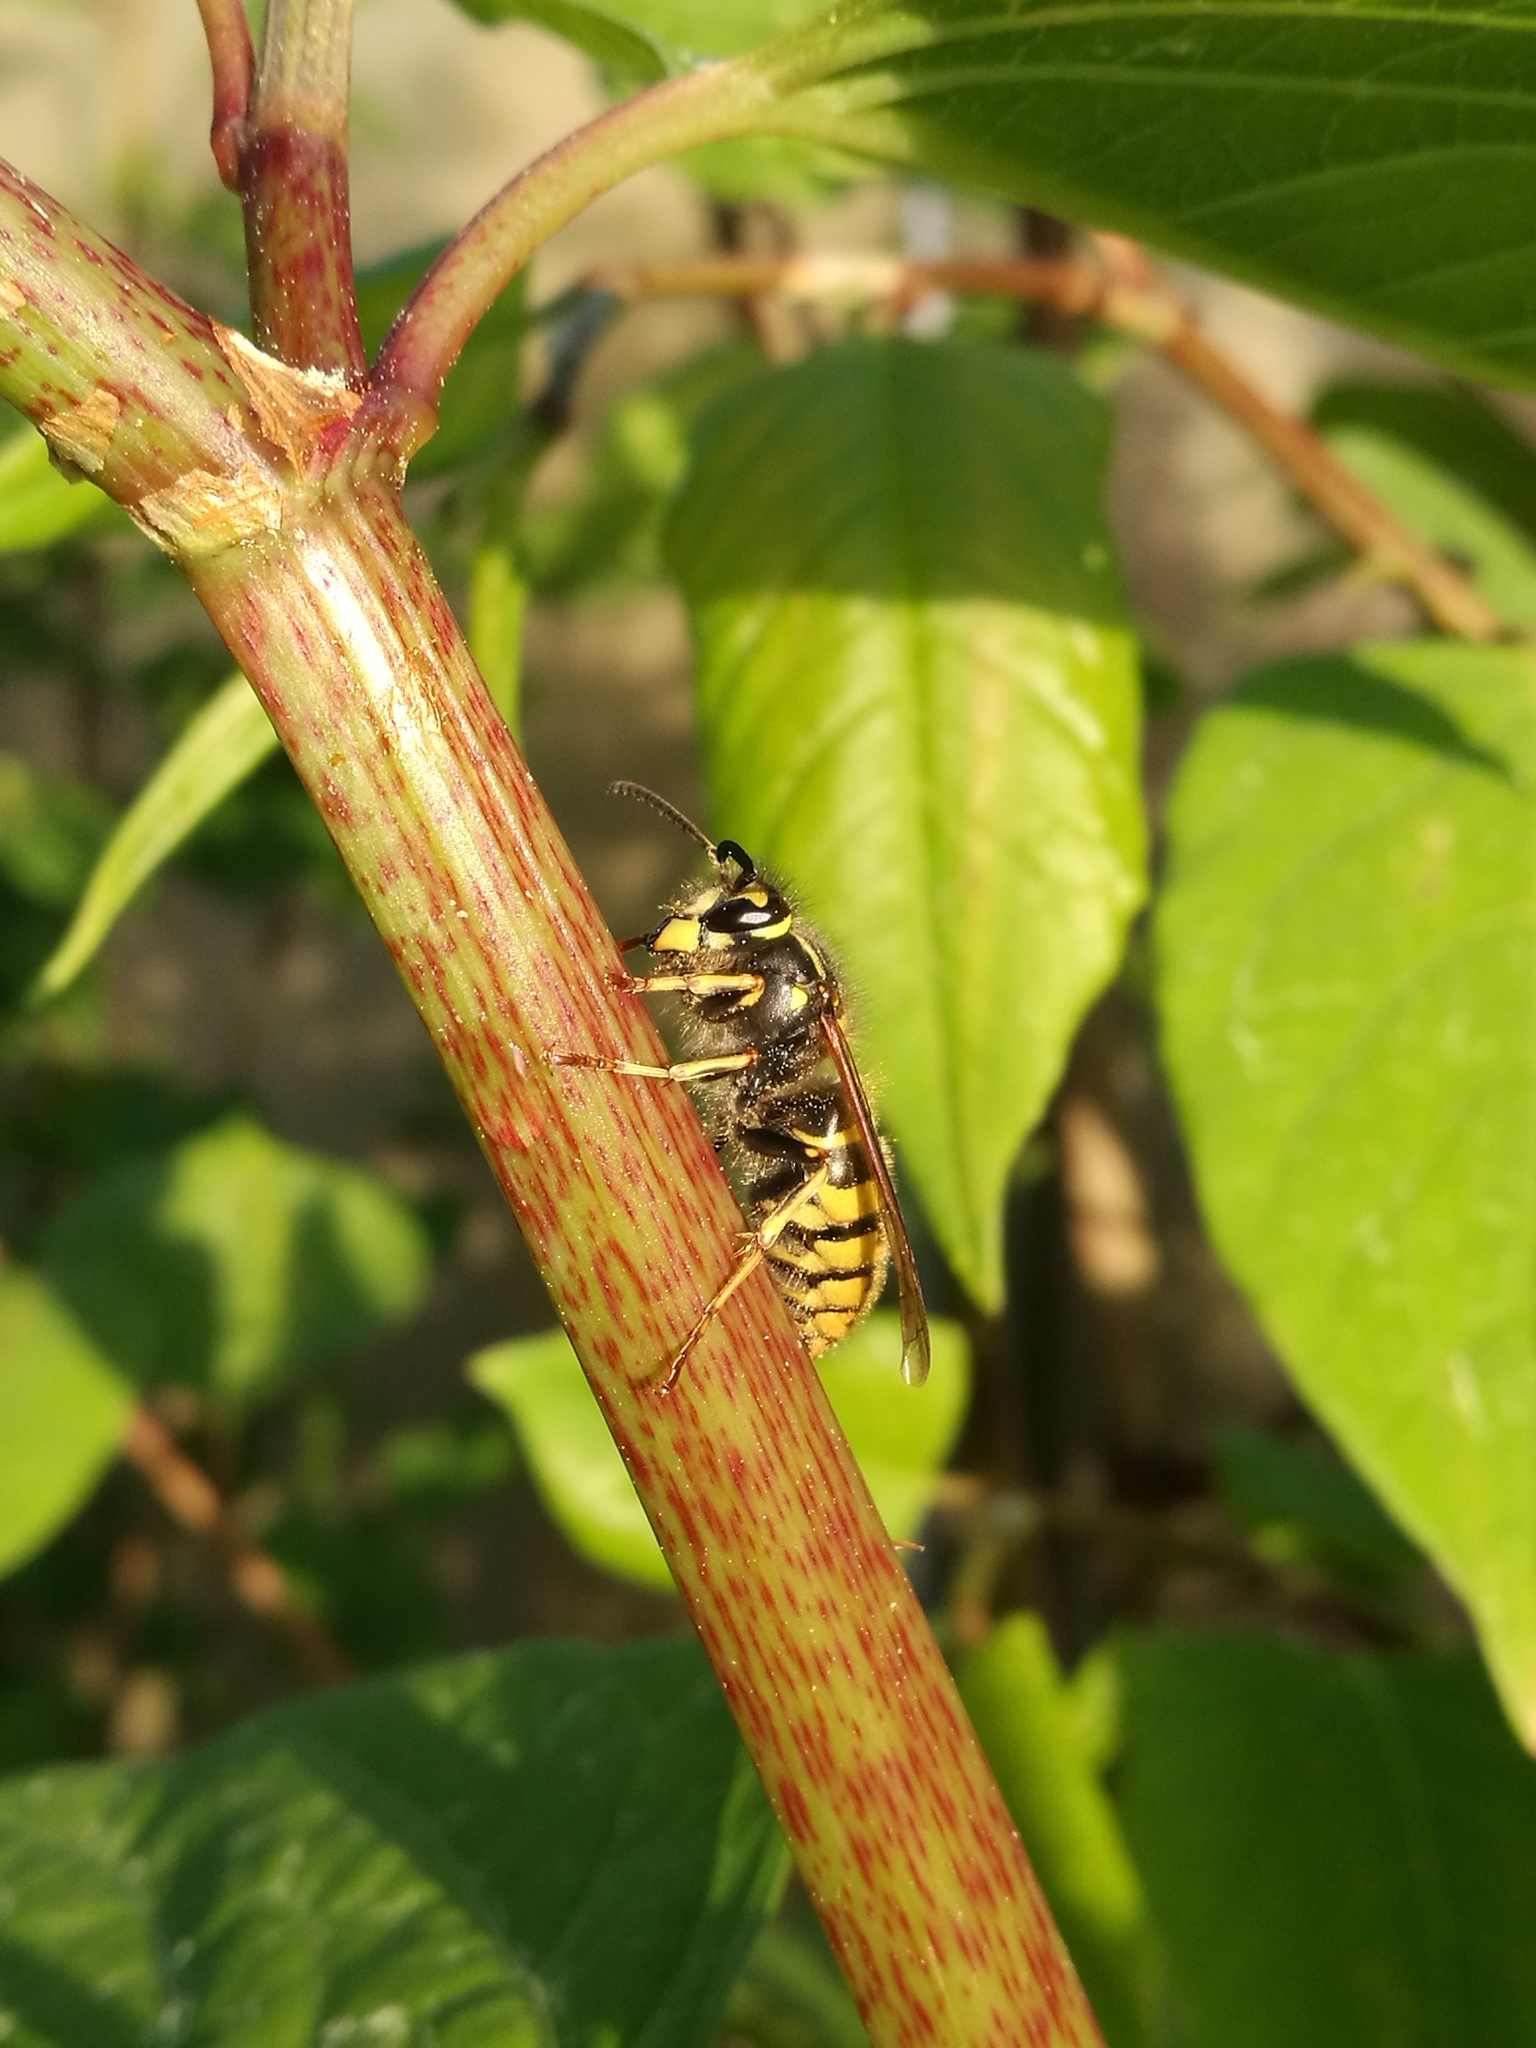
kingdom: Animalia
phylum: Arthropoda
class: Insecta
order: Hymenoptera
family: Vespidae
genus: Vespula
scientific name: Vespula vulgaris
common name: Common wasp
